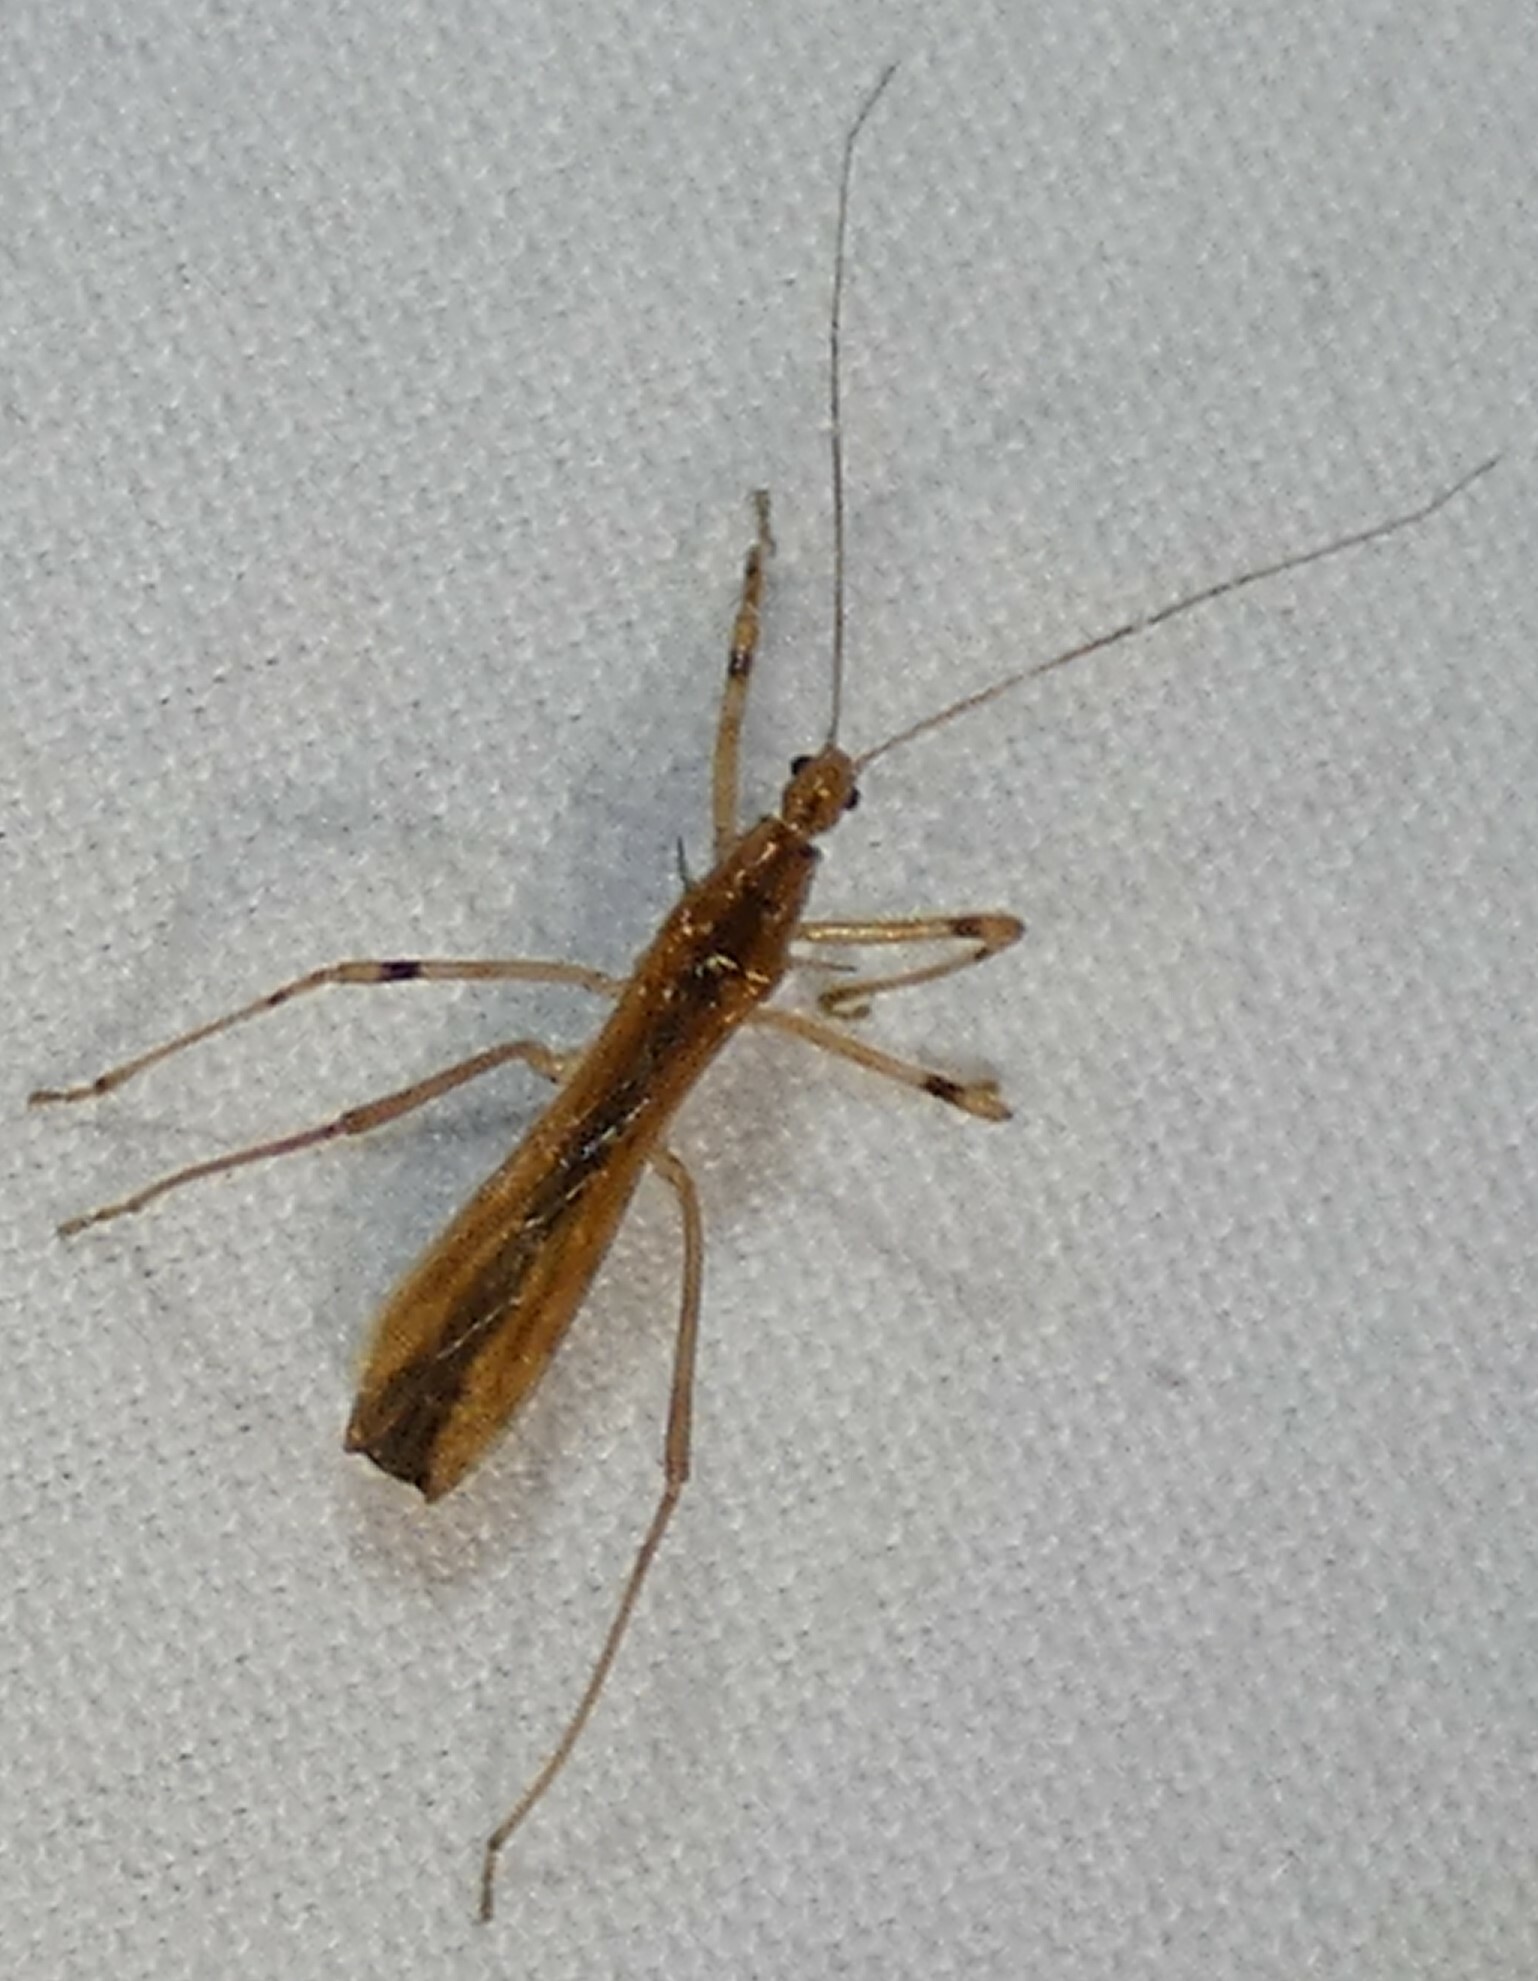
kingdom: Animalia
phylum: Arthropoda
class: Insecta
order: Hemiptera
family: Reduviidae
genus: Pseudosaica
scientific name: Pseudosaica florida
